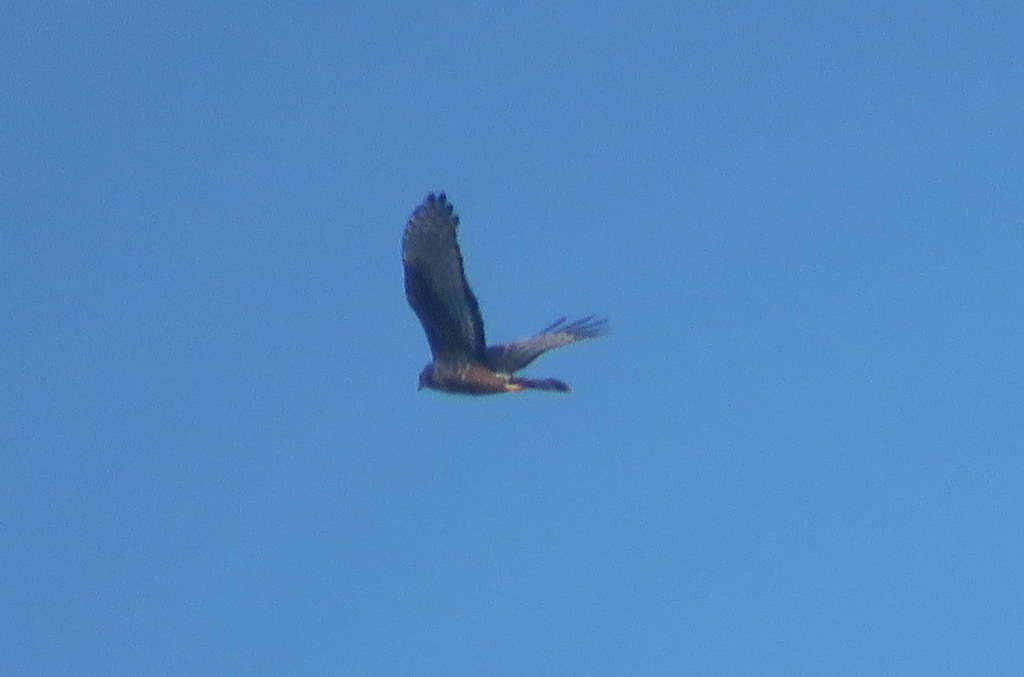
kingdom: Animalia
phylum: Chordata
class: Aves
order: Accipitriformes
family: Accipitridae
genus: Circus
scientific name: Circus buffoni
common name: Long-winged harrier
